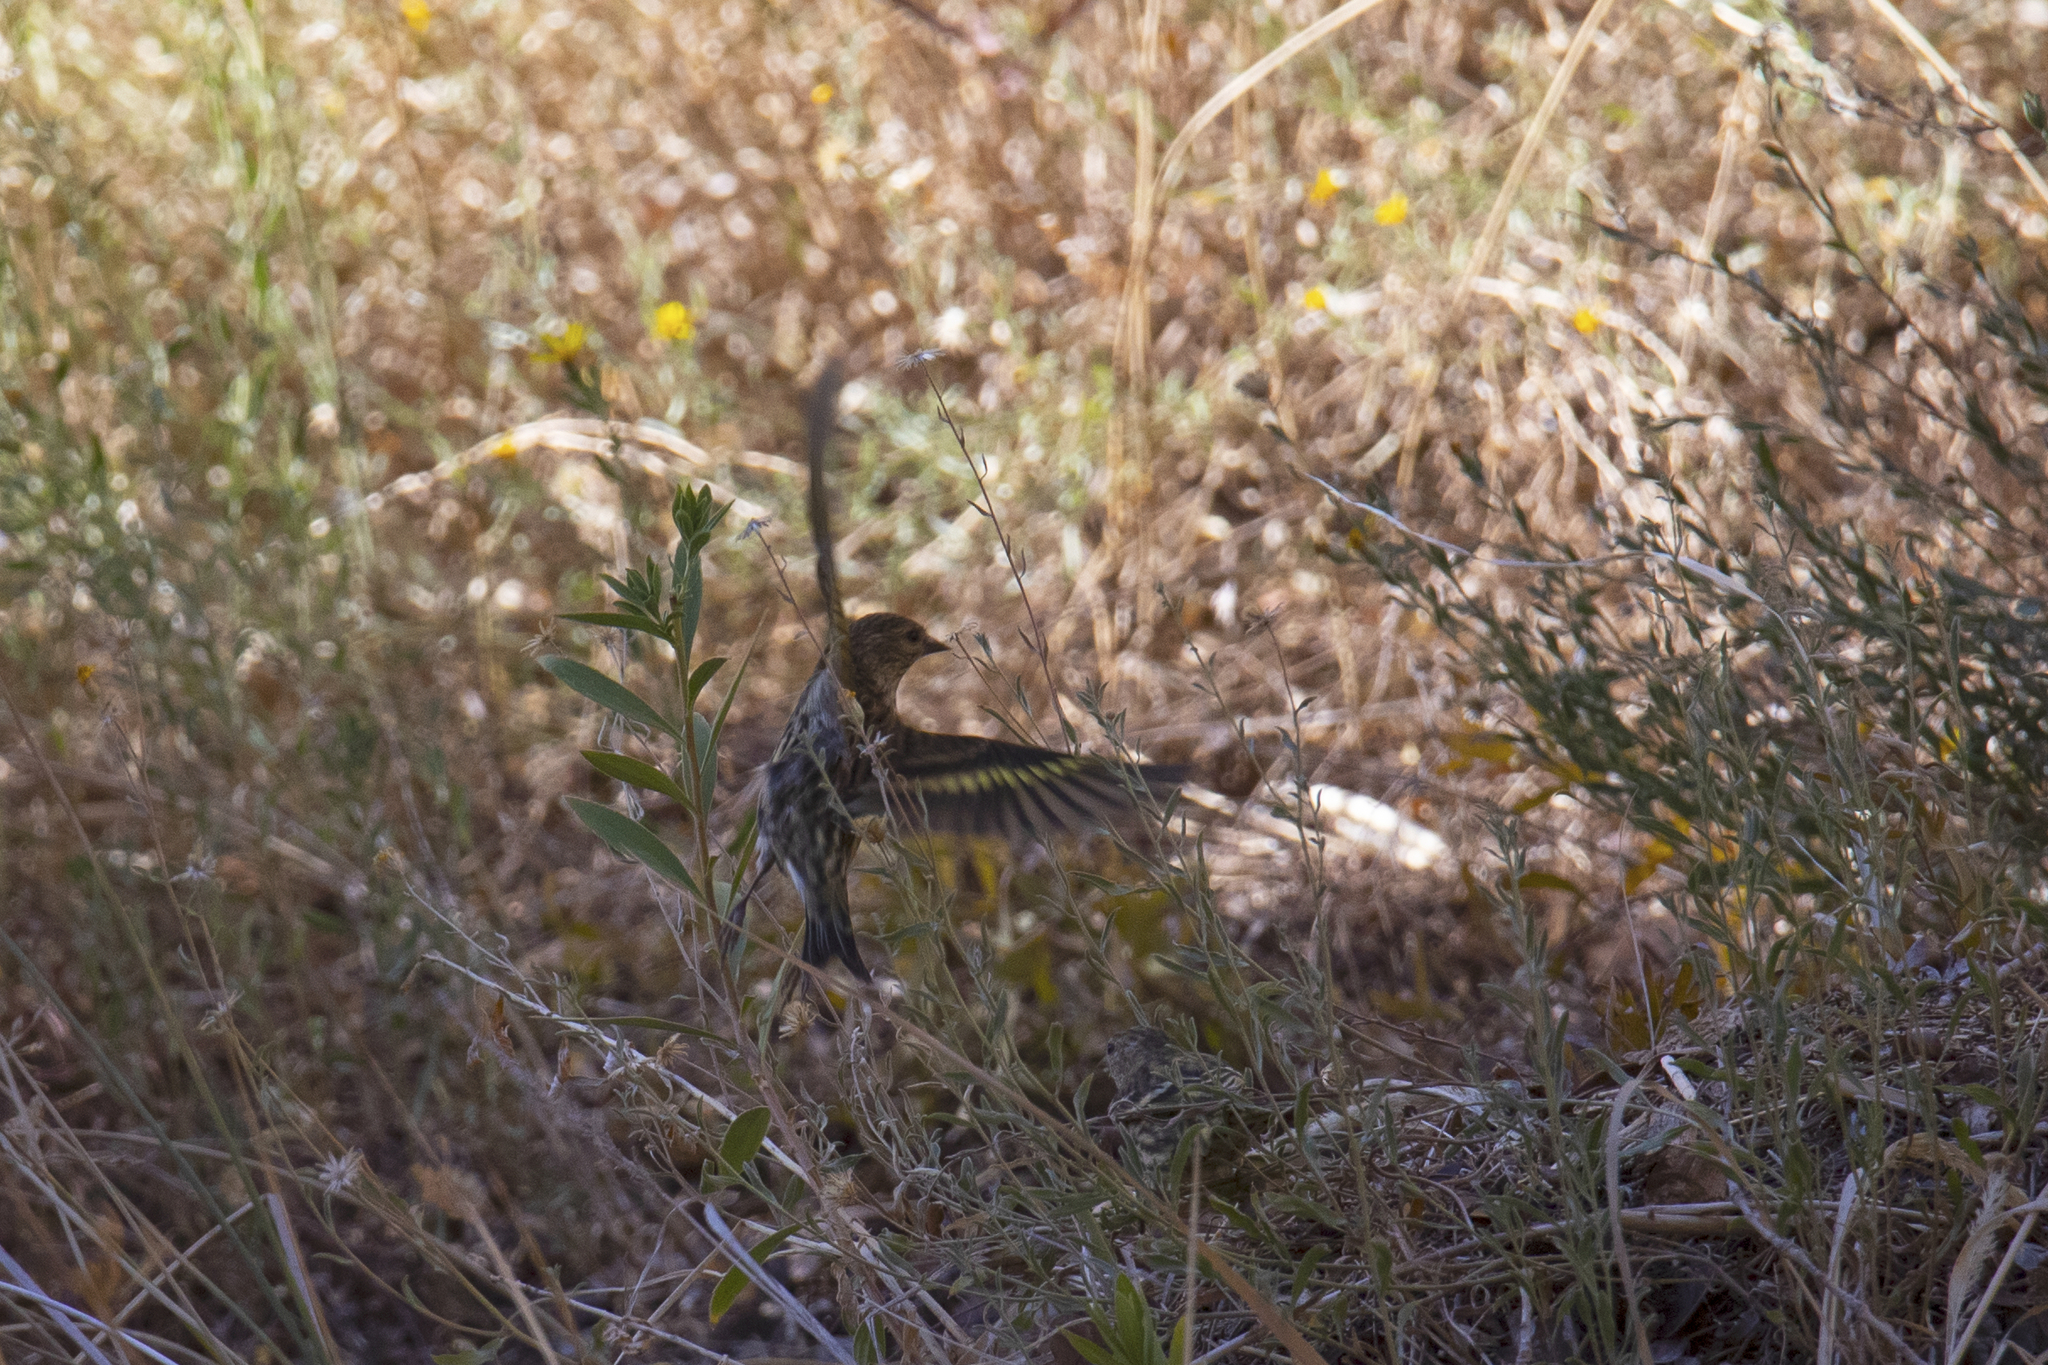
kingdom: Animalia
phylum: Chordata
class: Aves
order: Passeriformes
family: Fringillidae
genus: Spinus
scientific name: Spinus pinus
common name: Pine siskin
